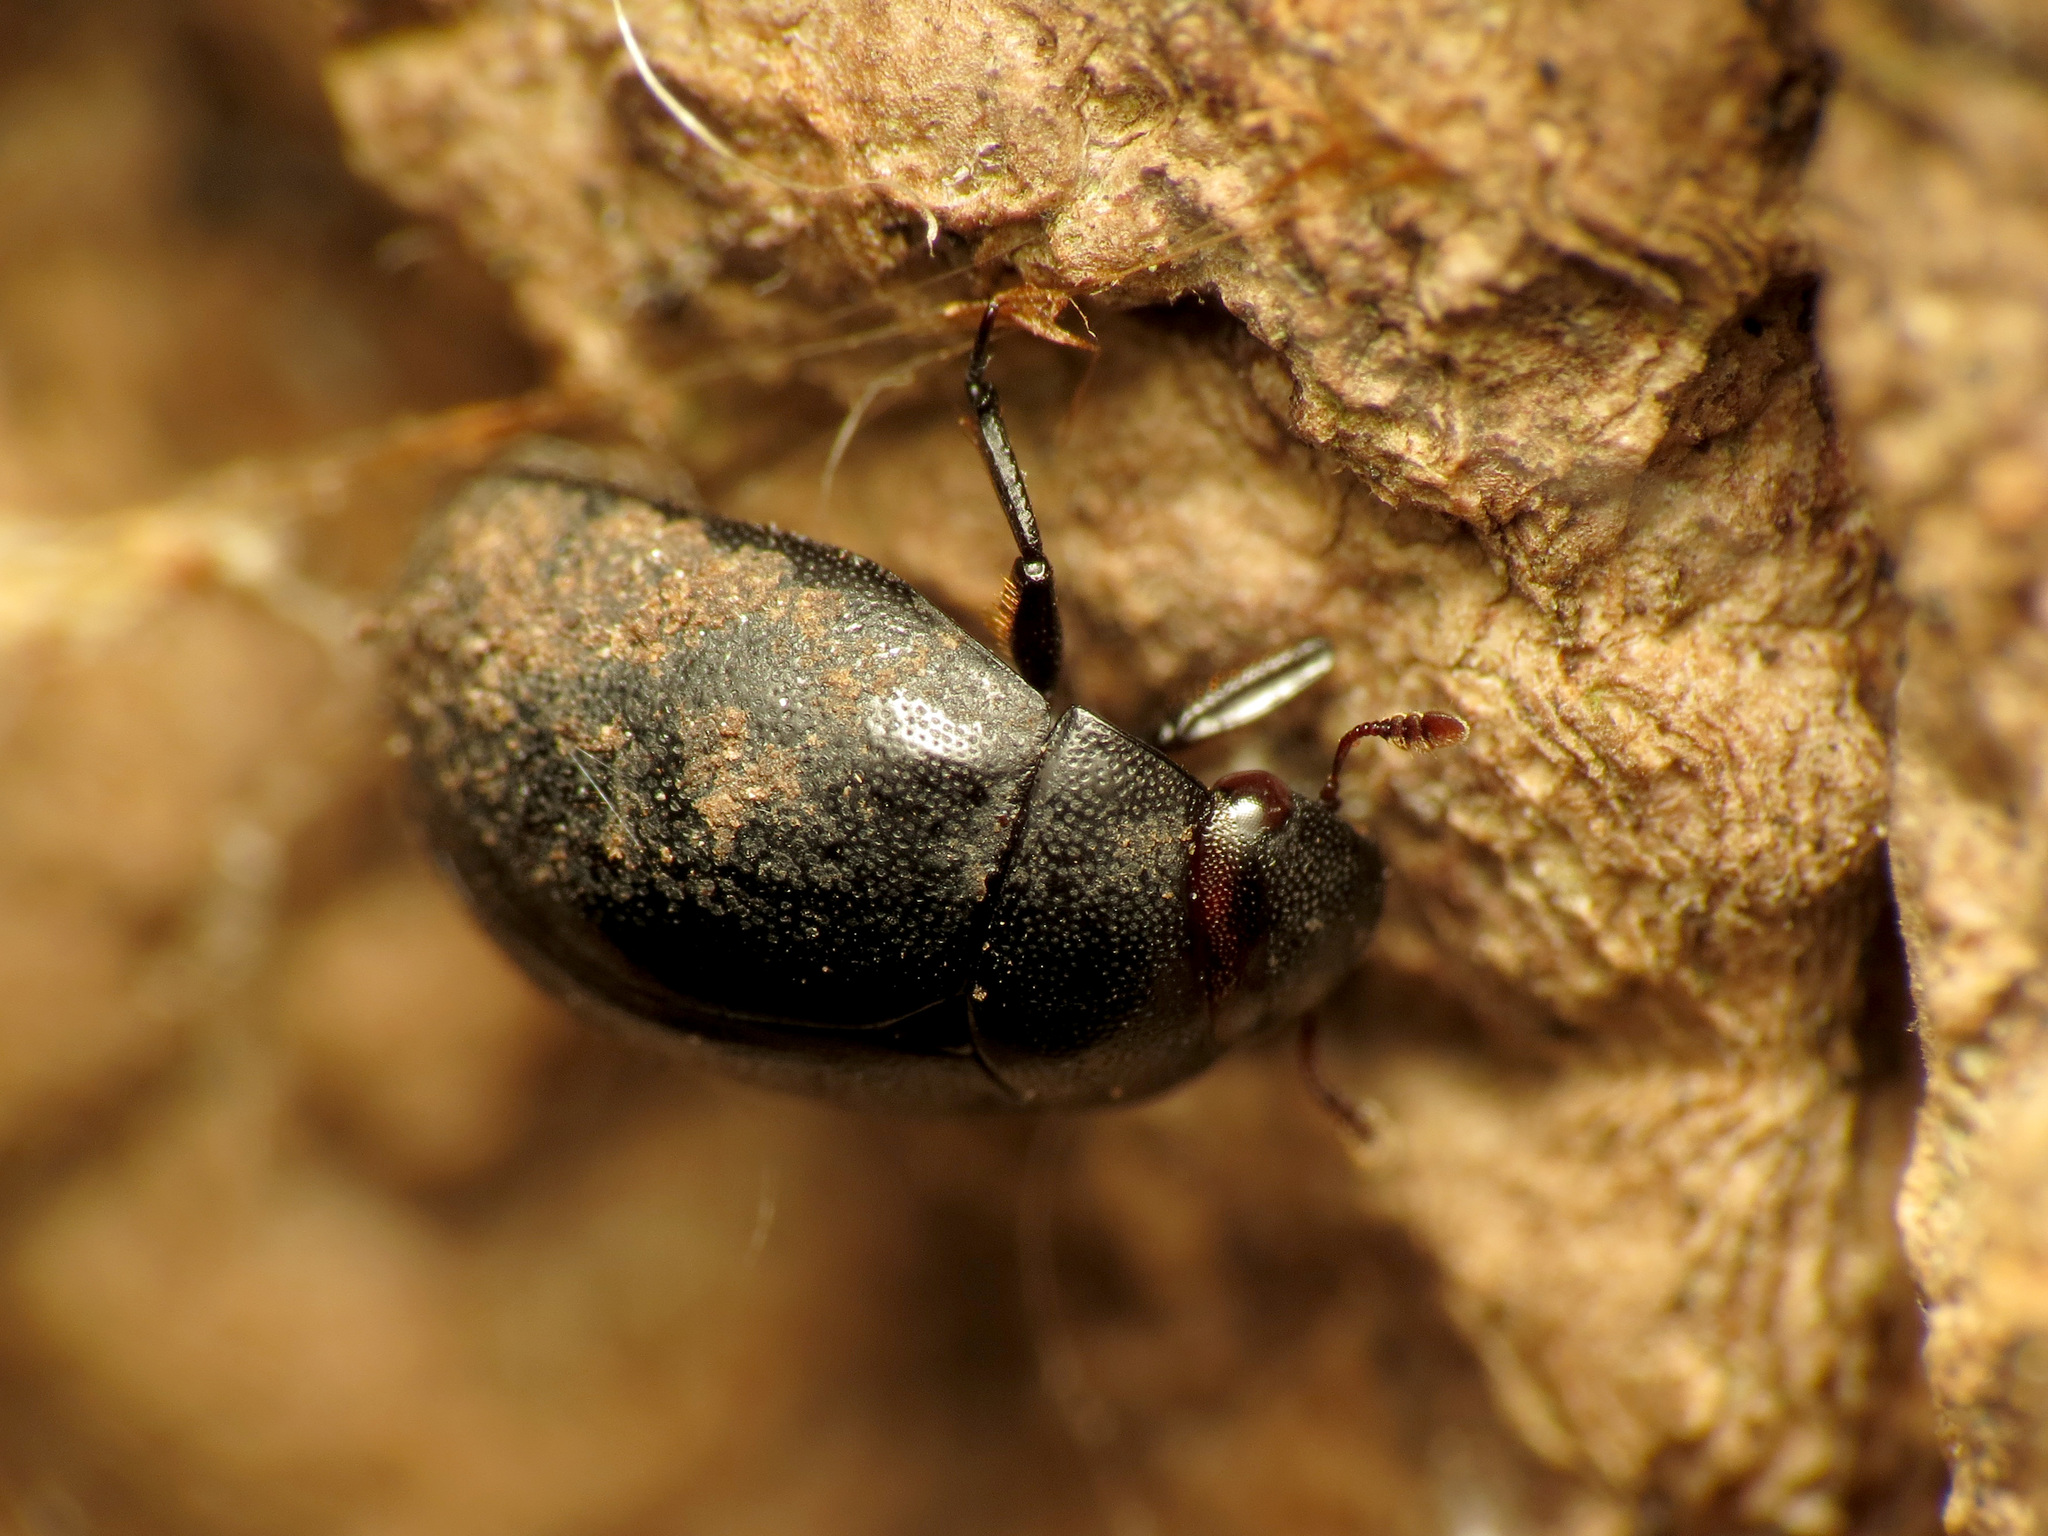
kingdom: Animalia
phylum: Arthropoda
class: Insecta
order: Coleoptera
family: Nosodendridae
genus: Nosodendron
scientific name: Nosodendron unicolor
